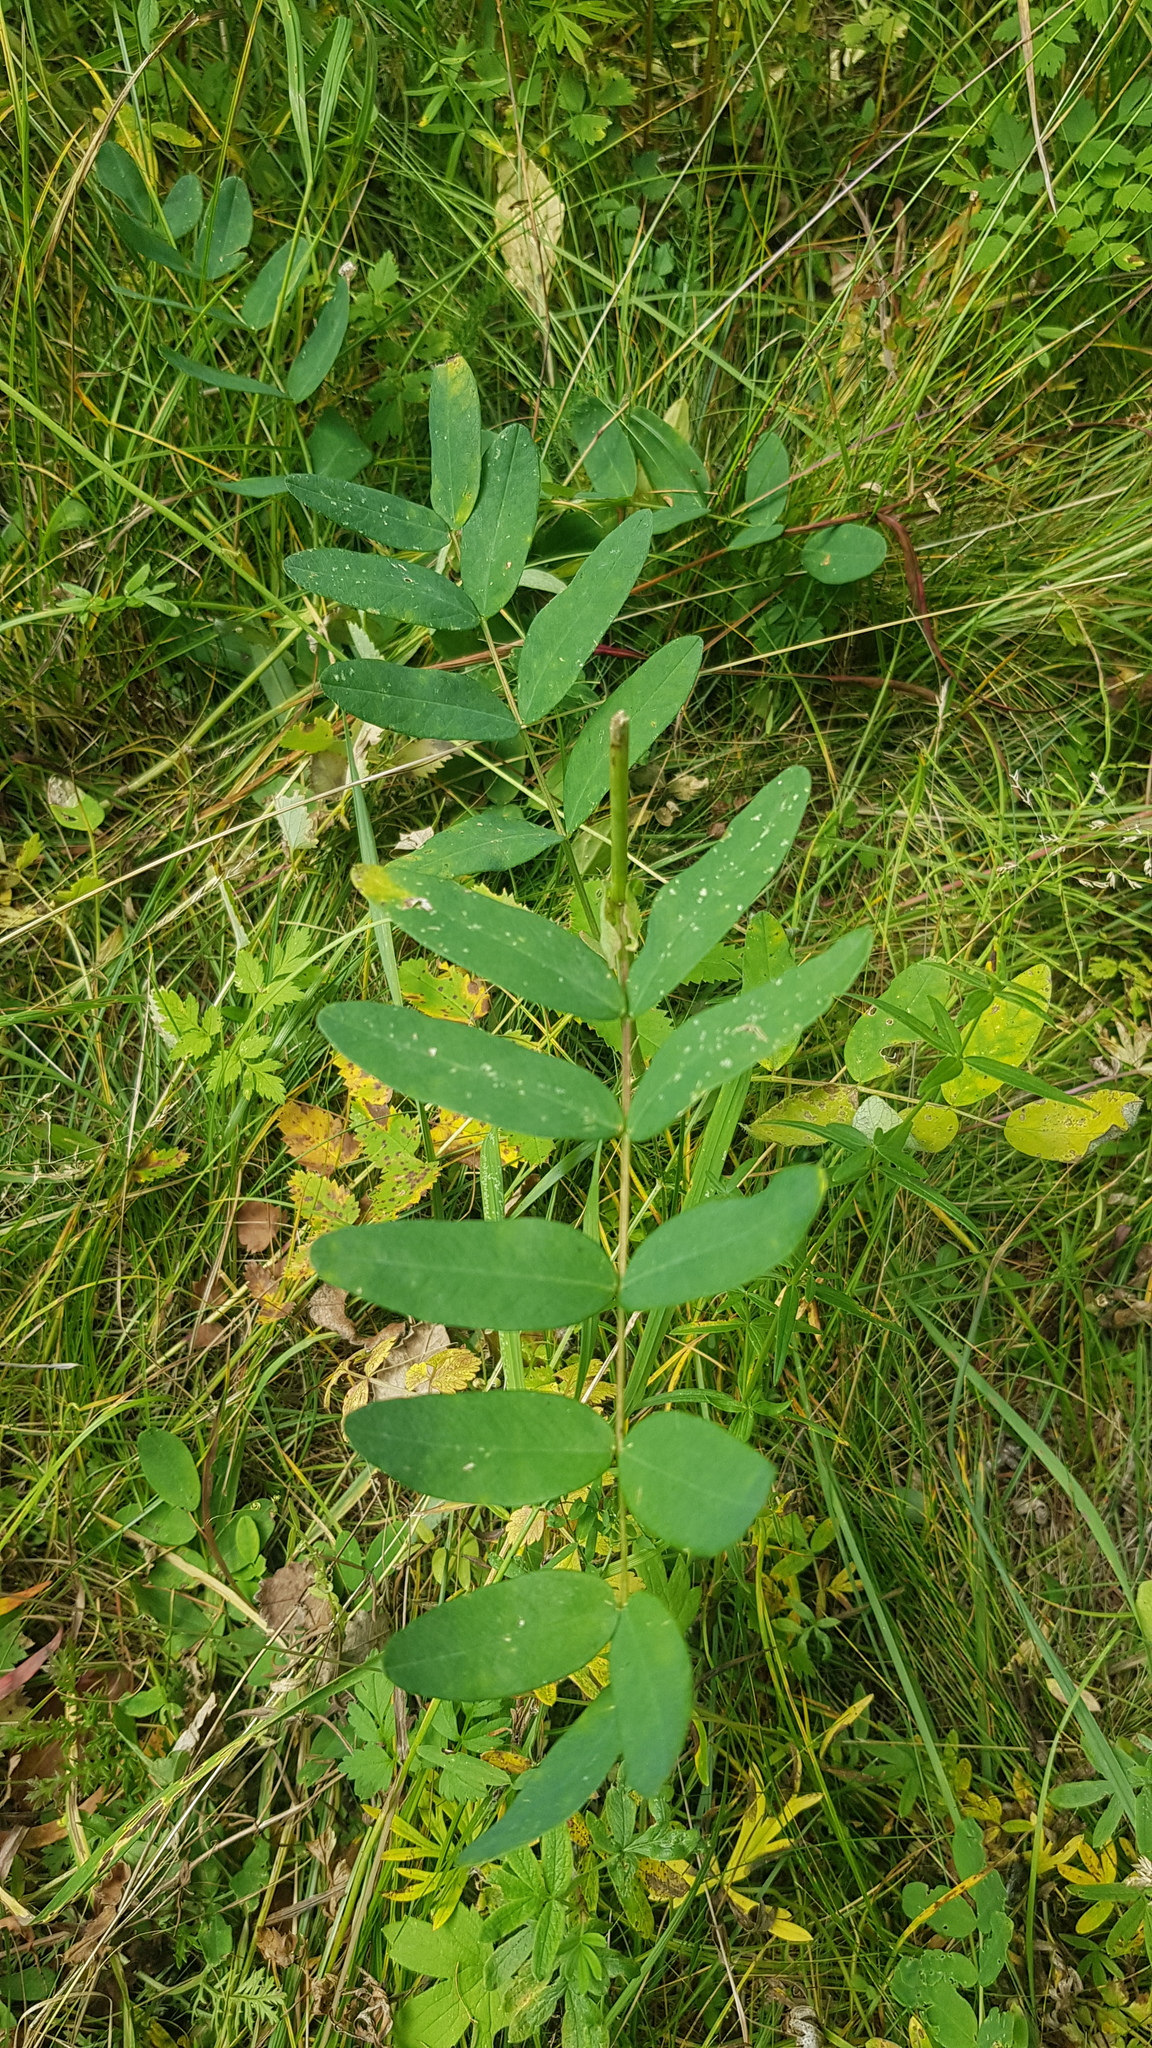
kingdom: Plantae
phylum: Tracheophyta
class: Magnoliopsida
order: Fabales
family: Fabaceae
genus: Astragalus
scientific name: Astragalus frigidus
